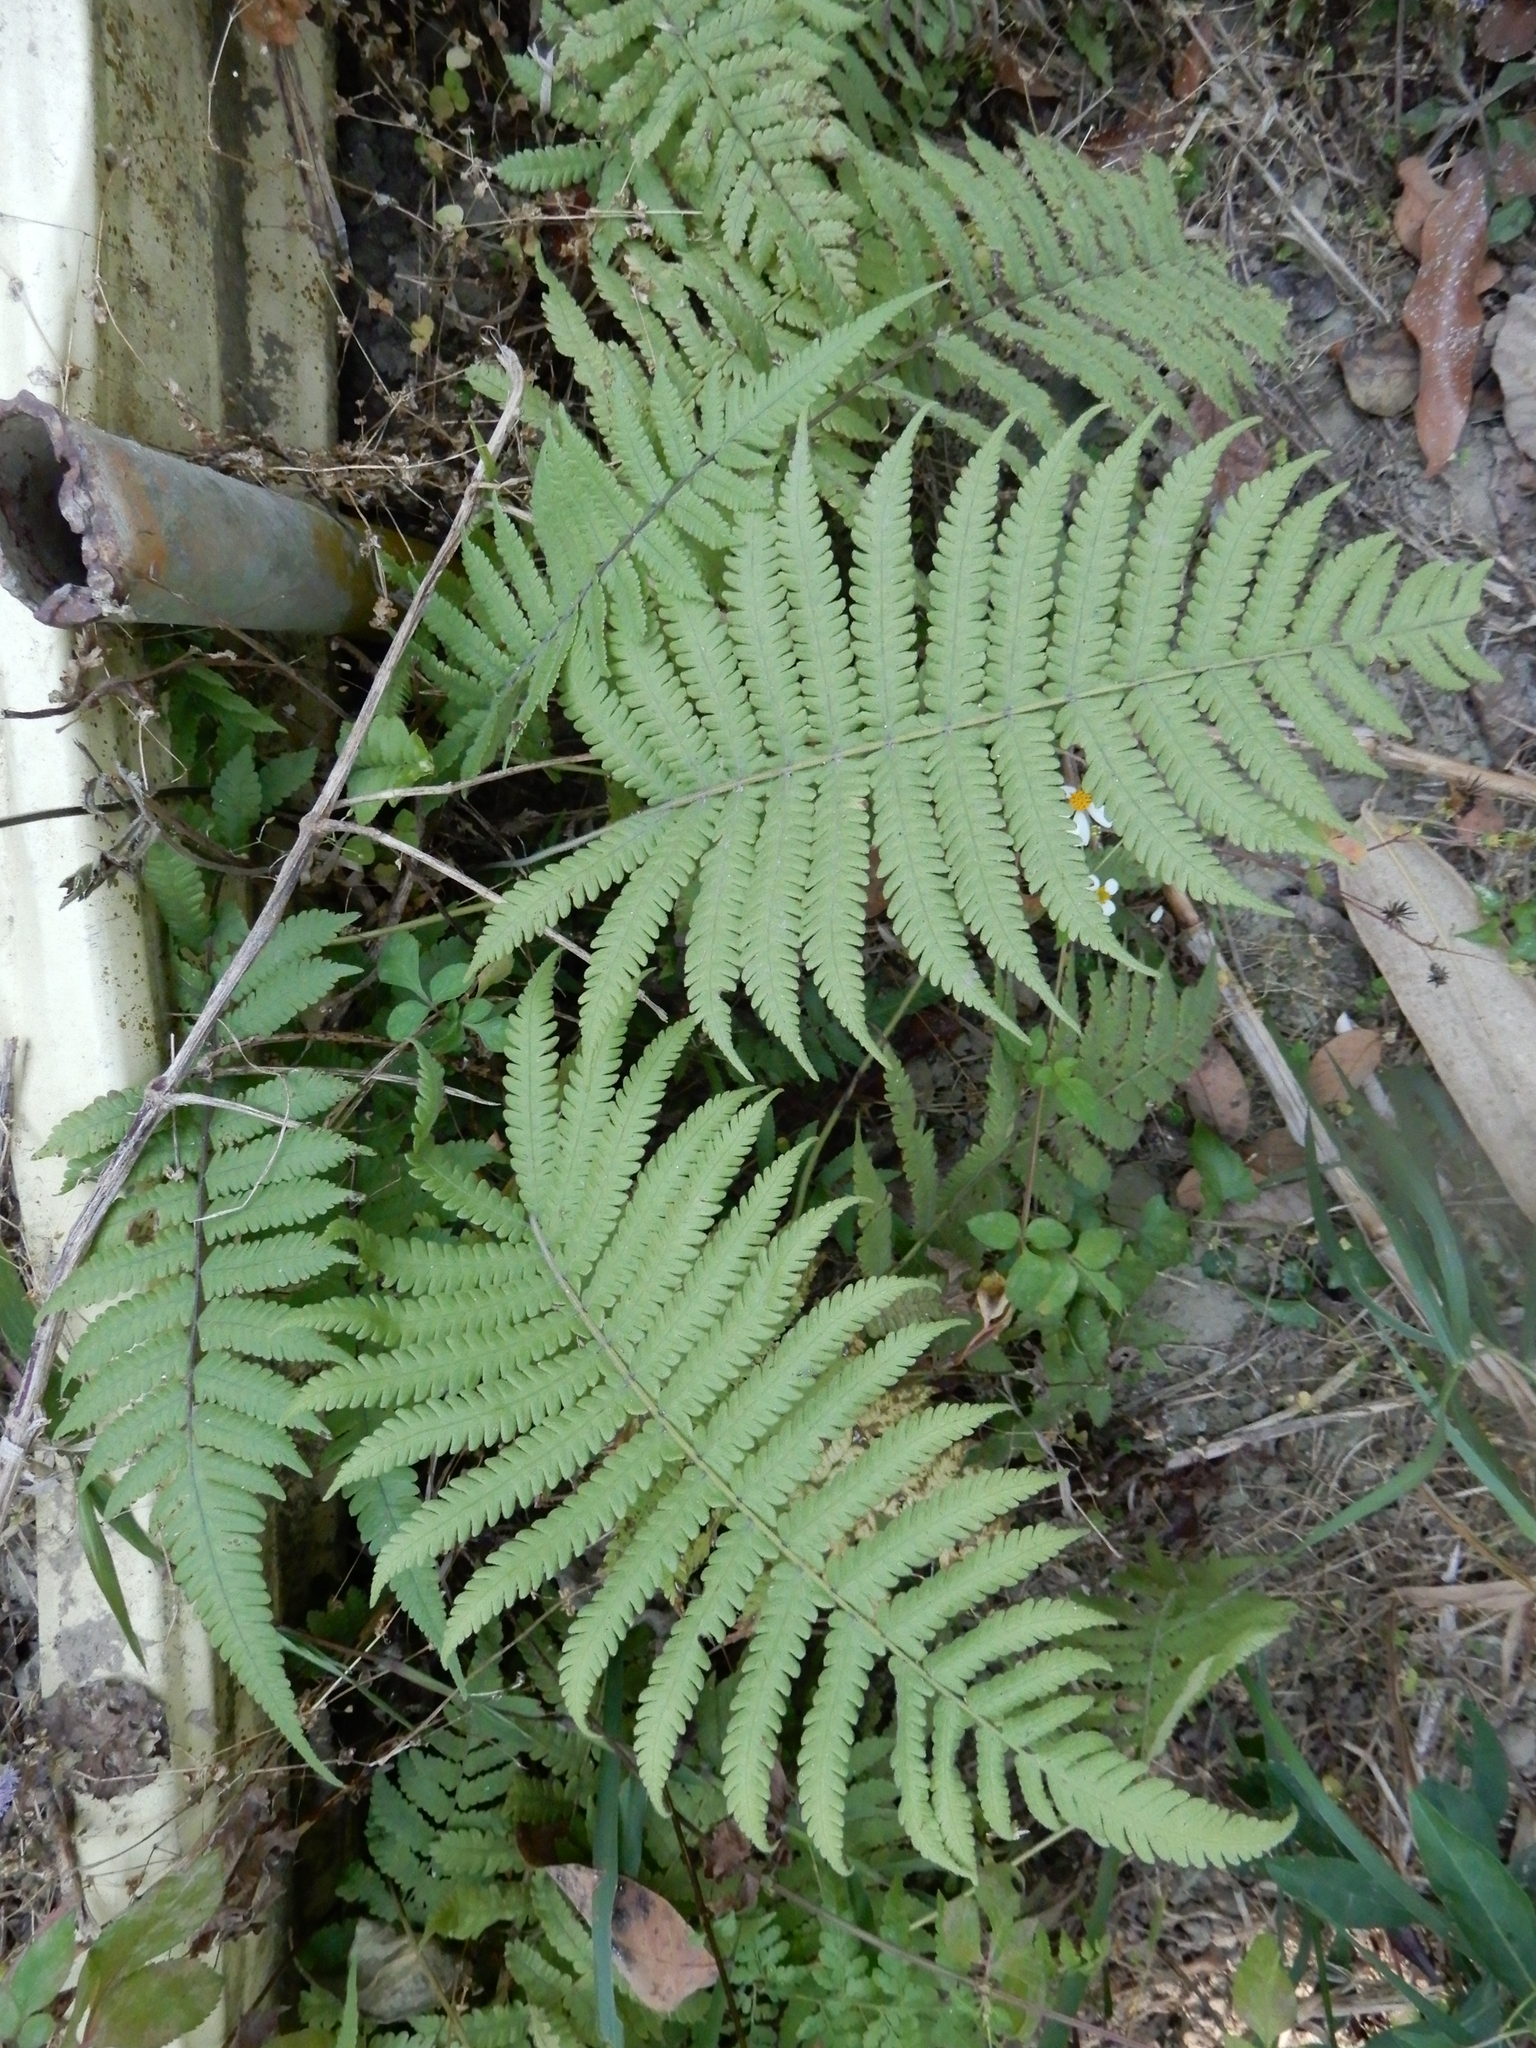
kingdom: Plantae
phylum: Tracheophyta
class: Polypodiopsida
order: Polypodiales
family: Thelypteridaceae
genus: Christella
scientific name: Christella parasitica
